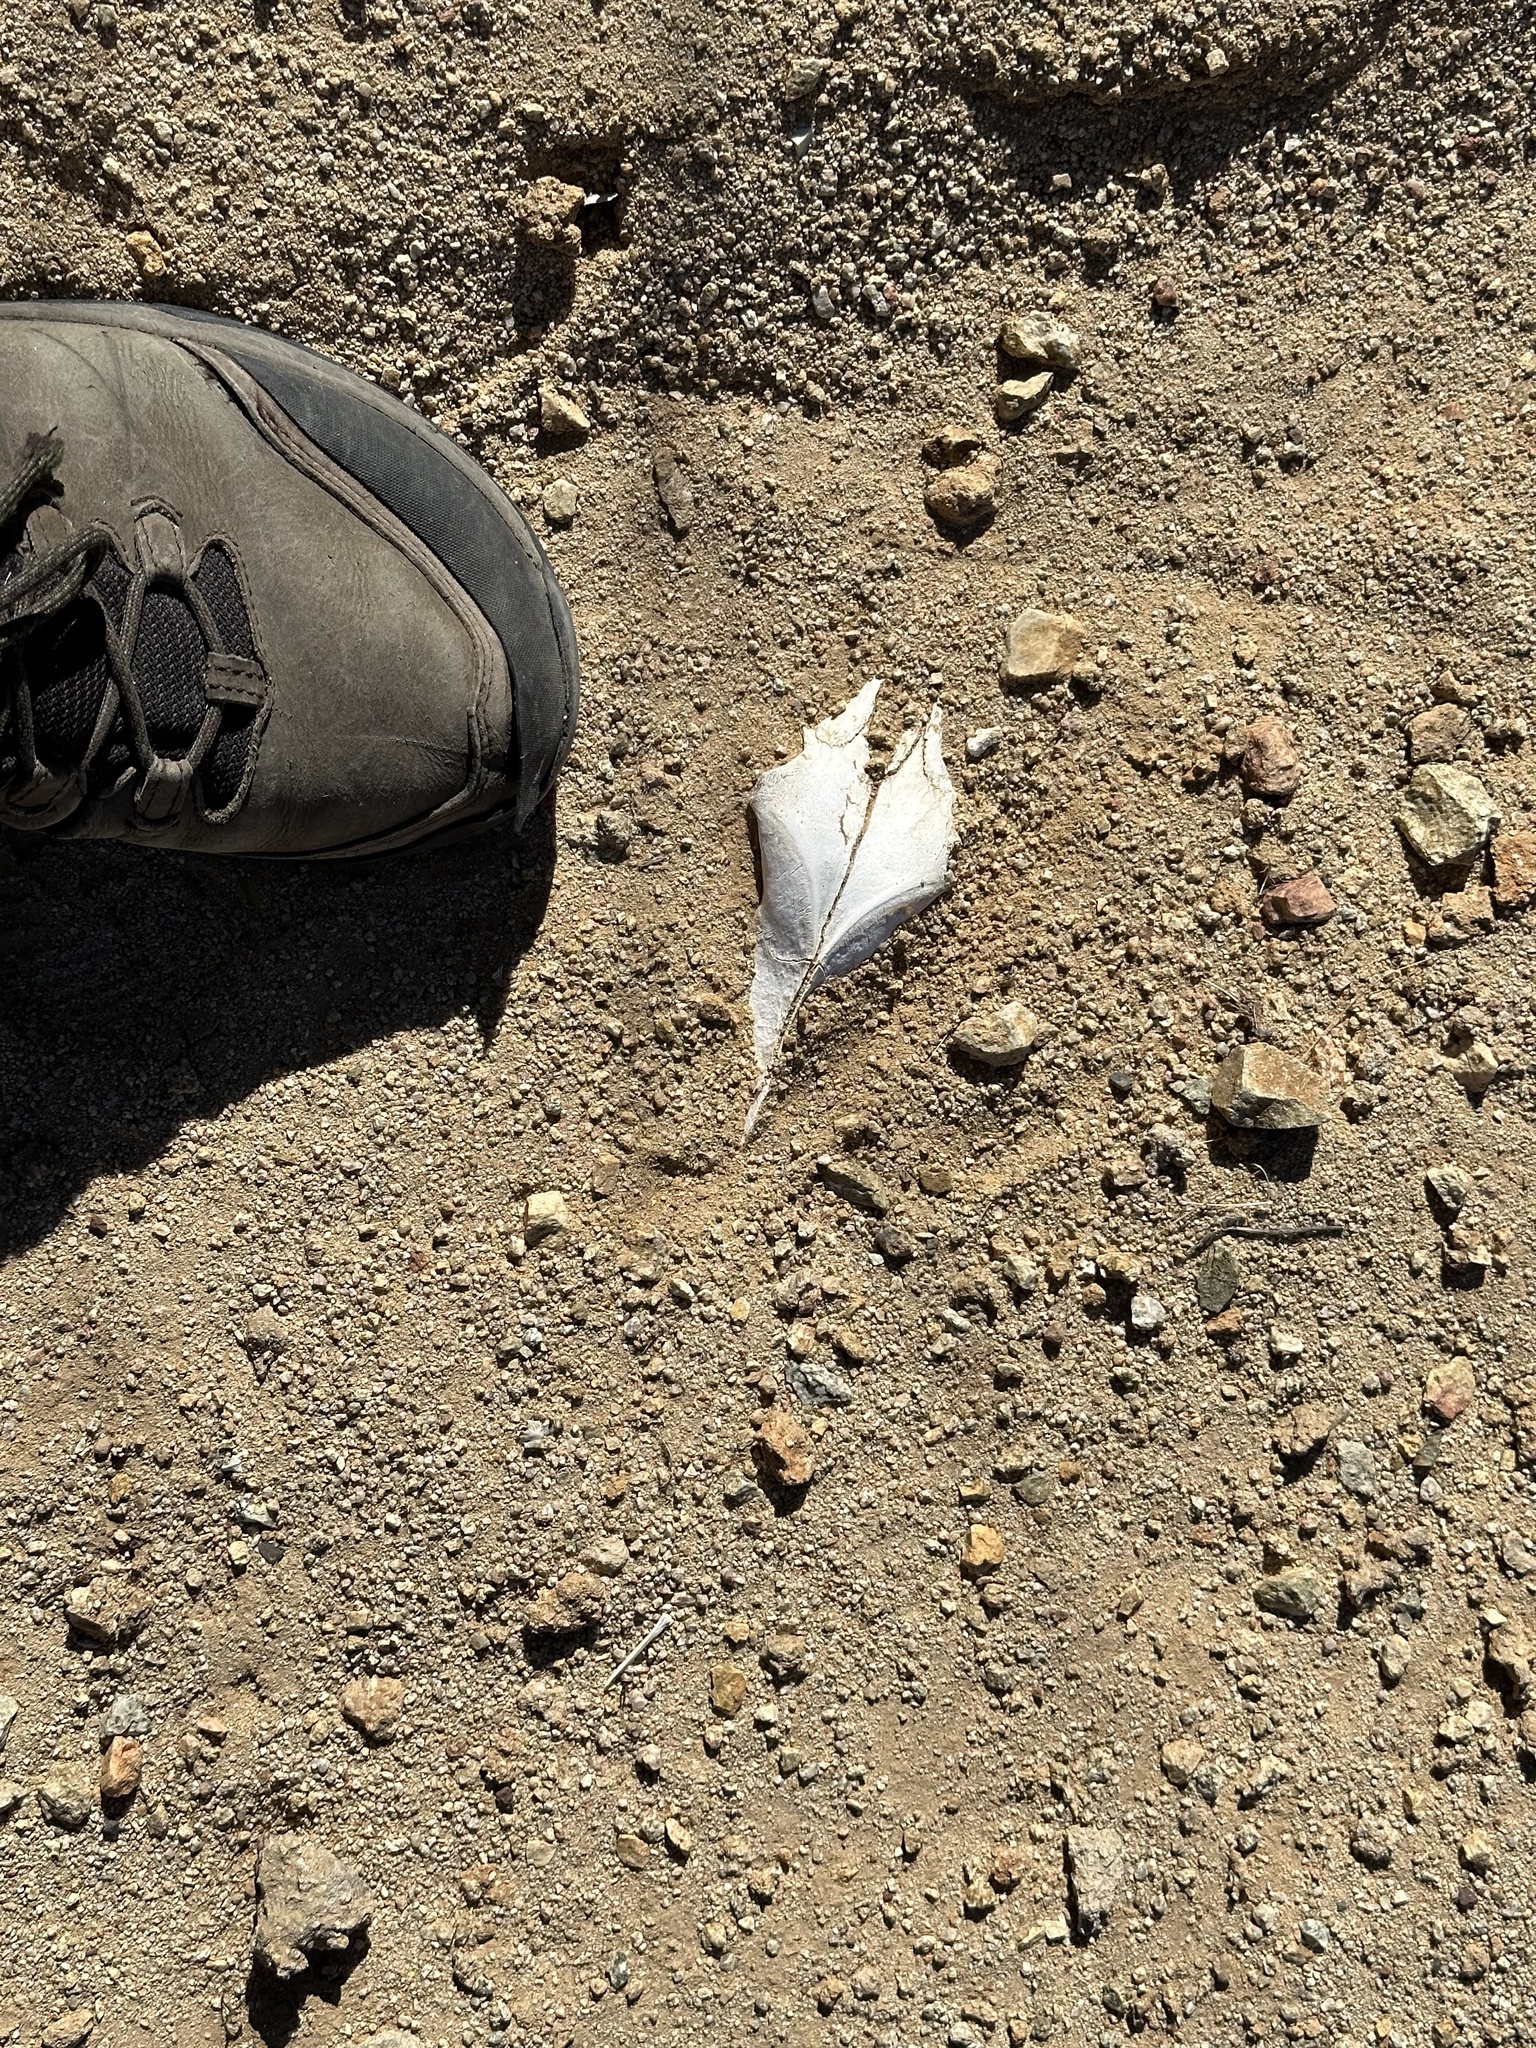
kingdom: Animalia
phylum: Chordata
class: Mammalia
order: Carnivora
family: Canidae
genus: Canis
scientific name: Canis latrans
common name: Coyote
